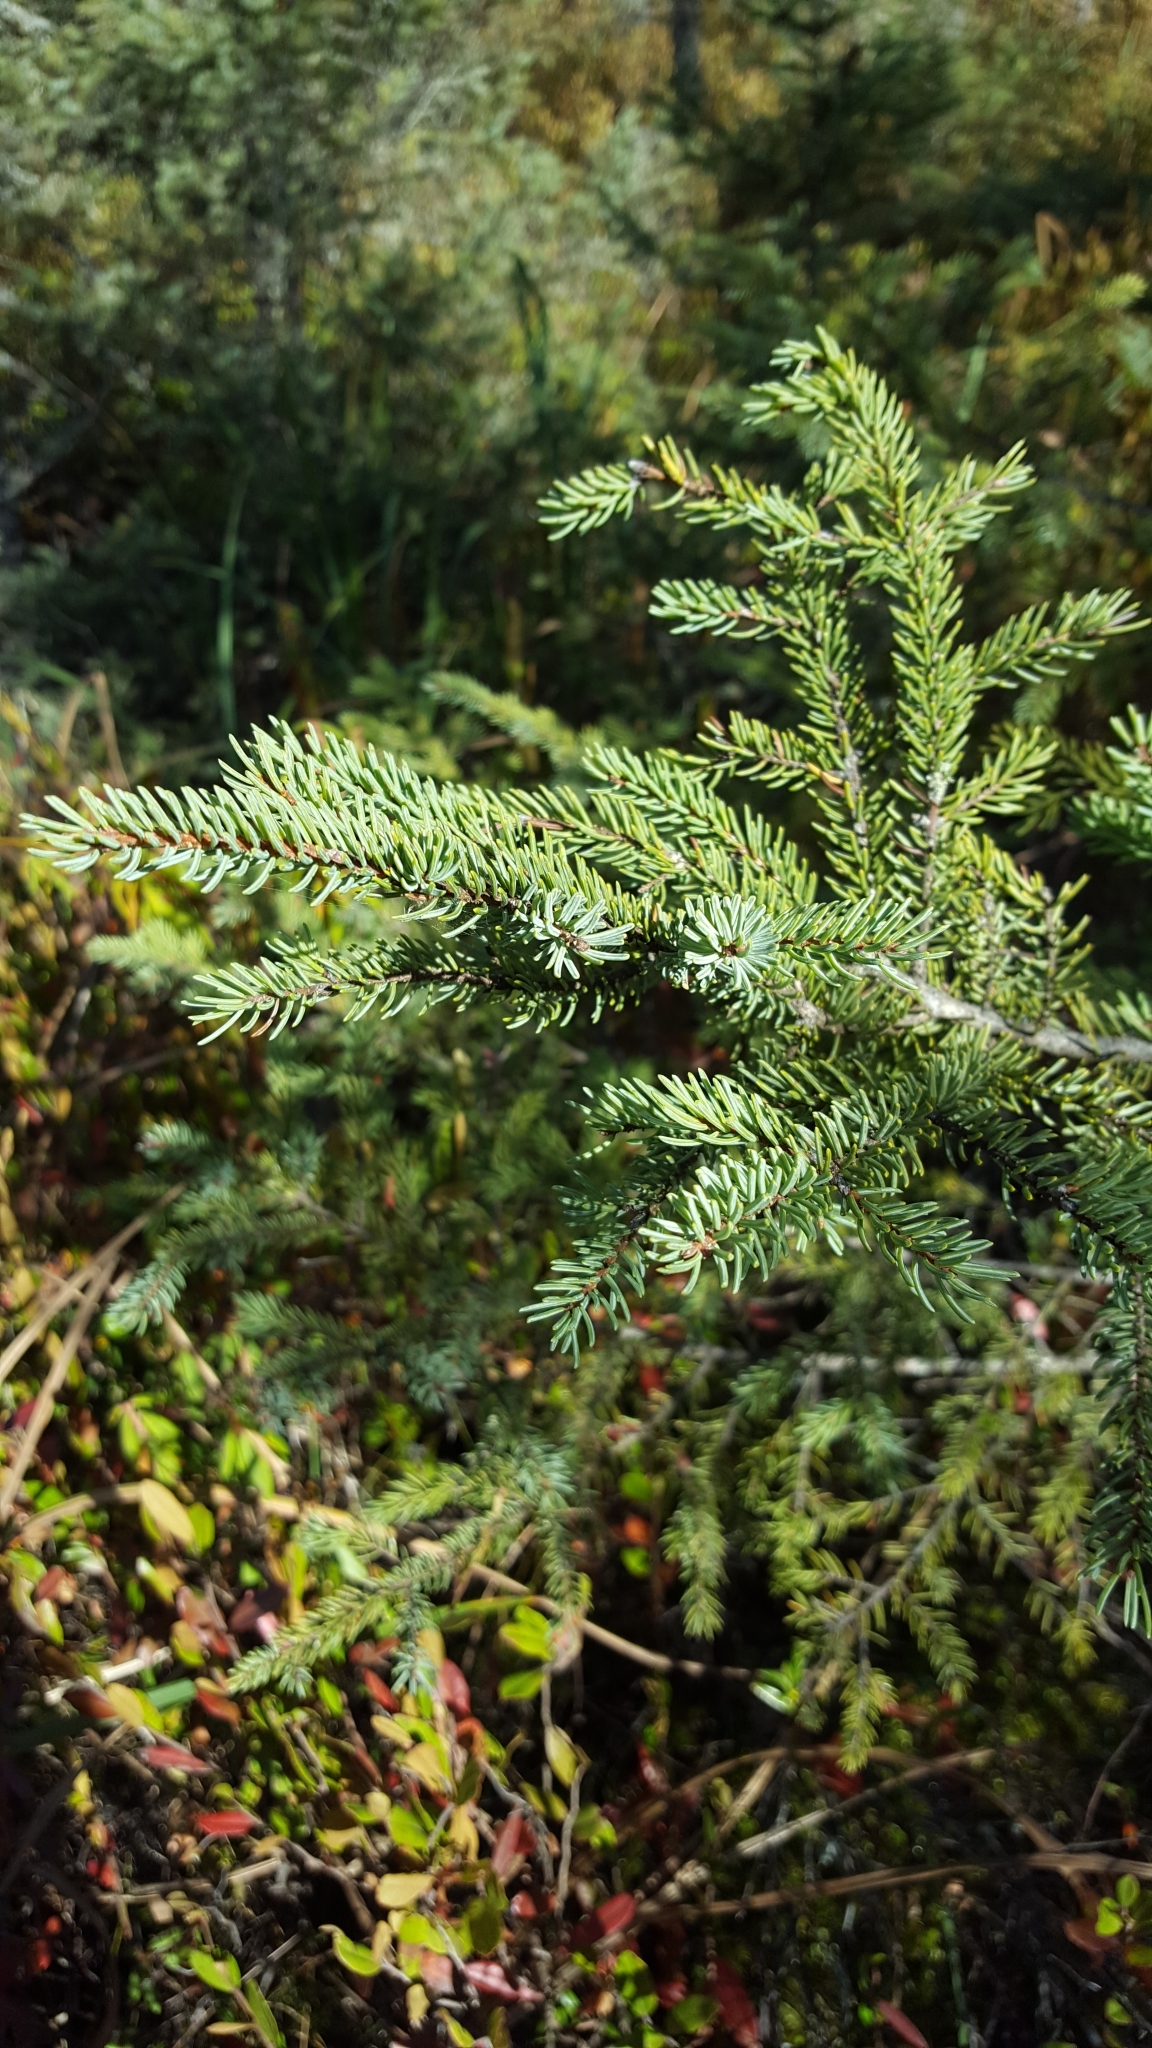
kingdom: Plantae
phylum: Tracheophyta
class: Pinopsida
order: Pinales
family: Pinaceae
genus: Picea
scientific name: Picea mariana
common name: Black spruce
